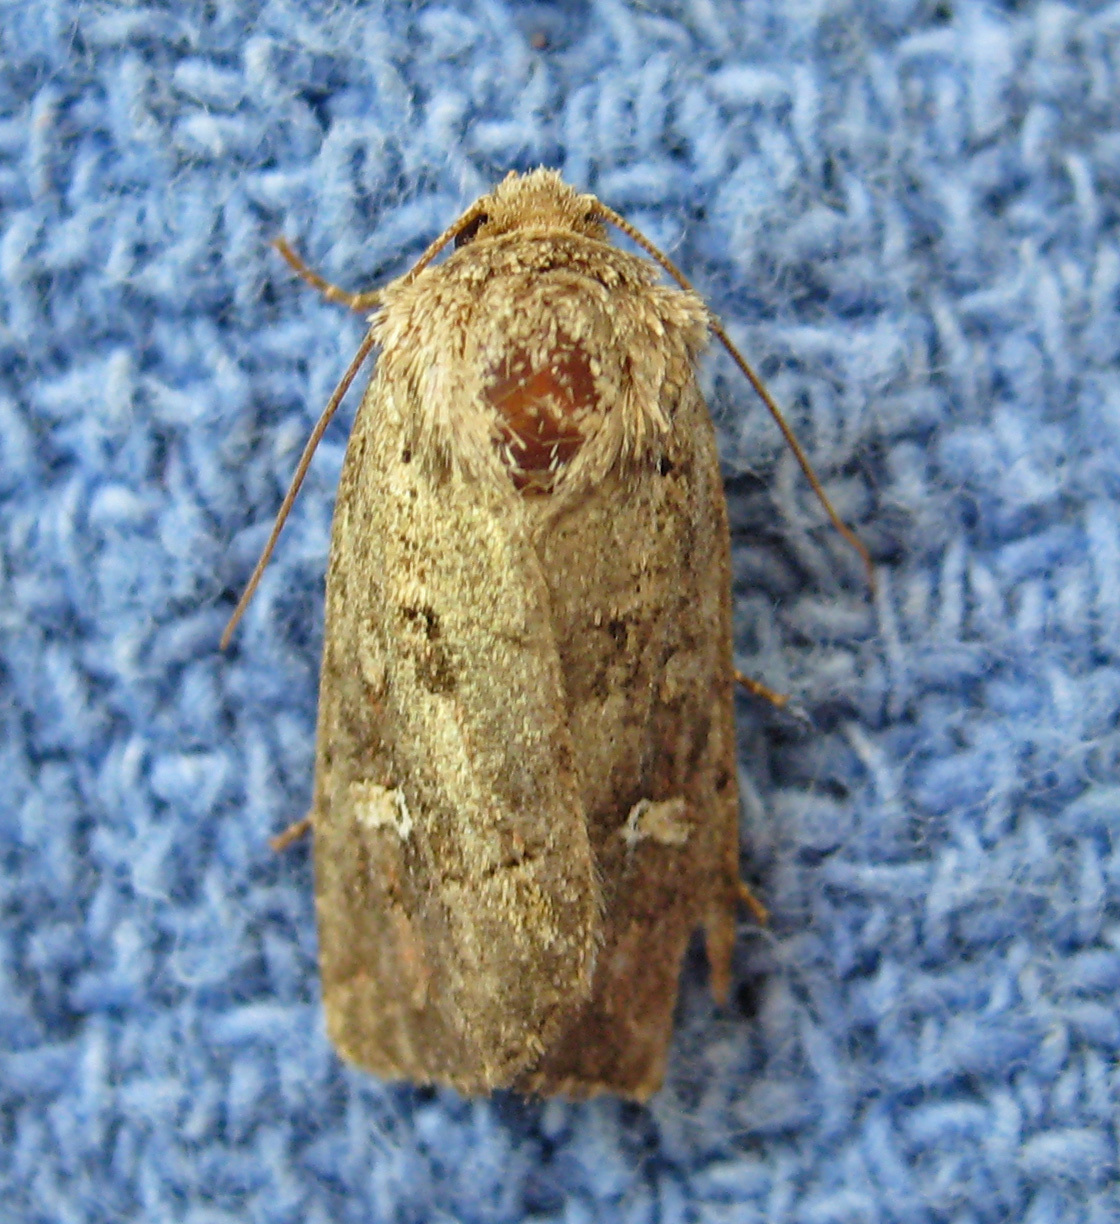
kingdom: Animalia
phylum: Arthropoda
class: Insecta
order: Lepidoptera
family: Noctuidae
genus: Lacinipolia
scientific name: Lacinipolia renigera
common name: Kidney-spotted minor
